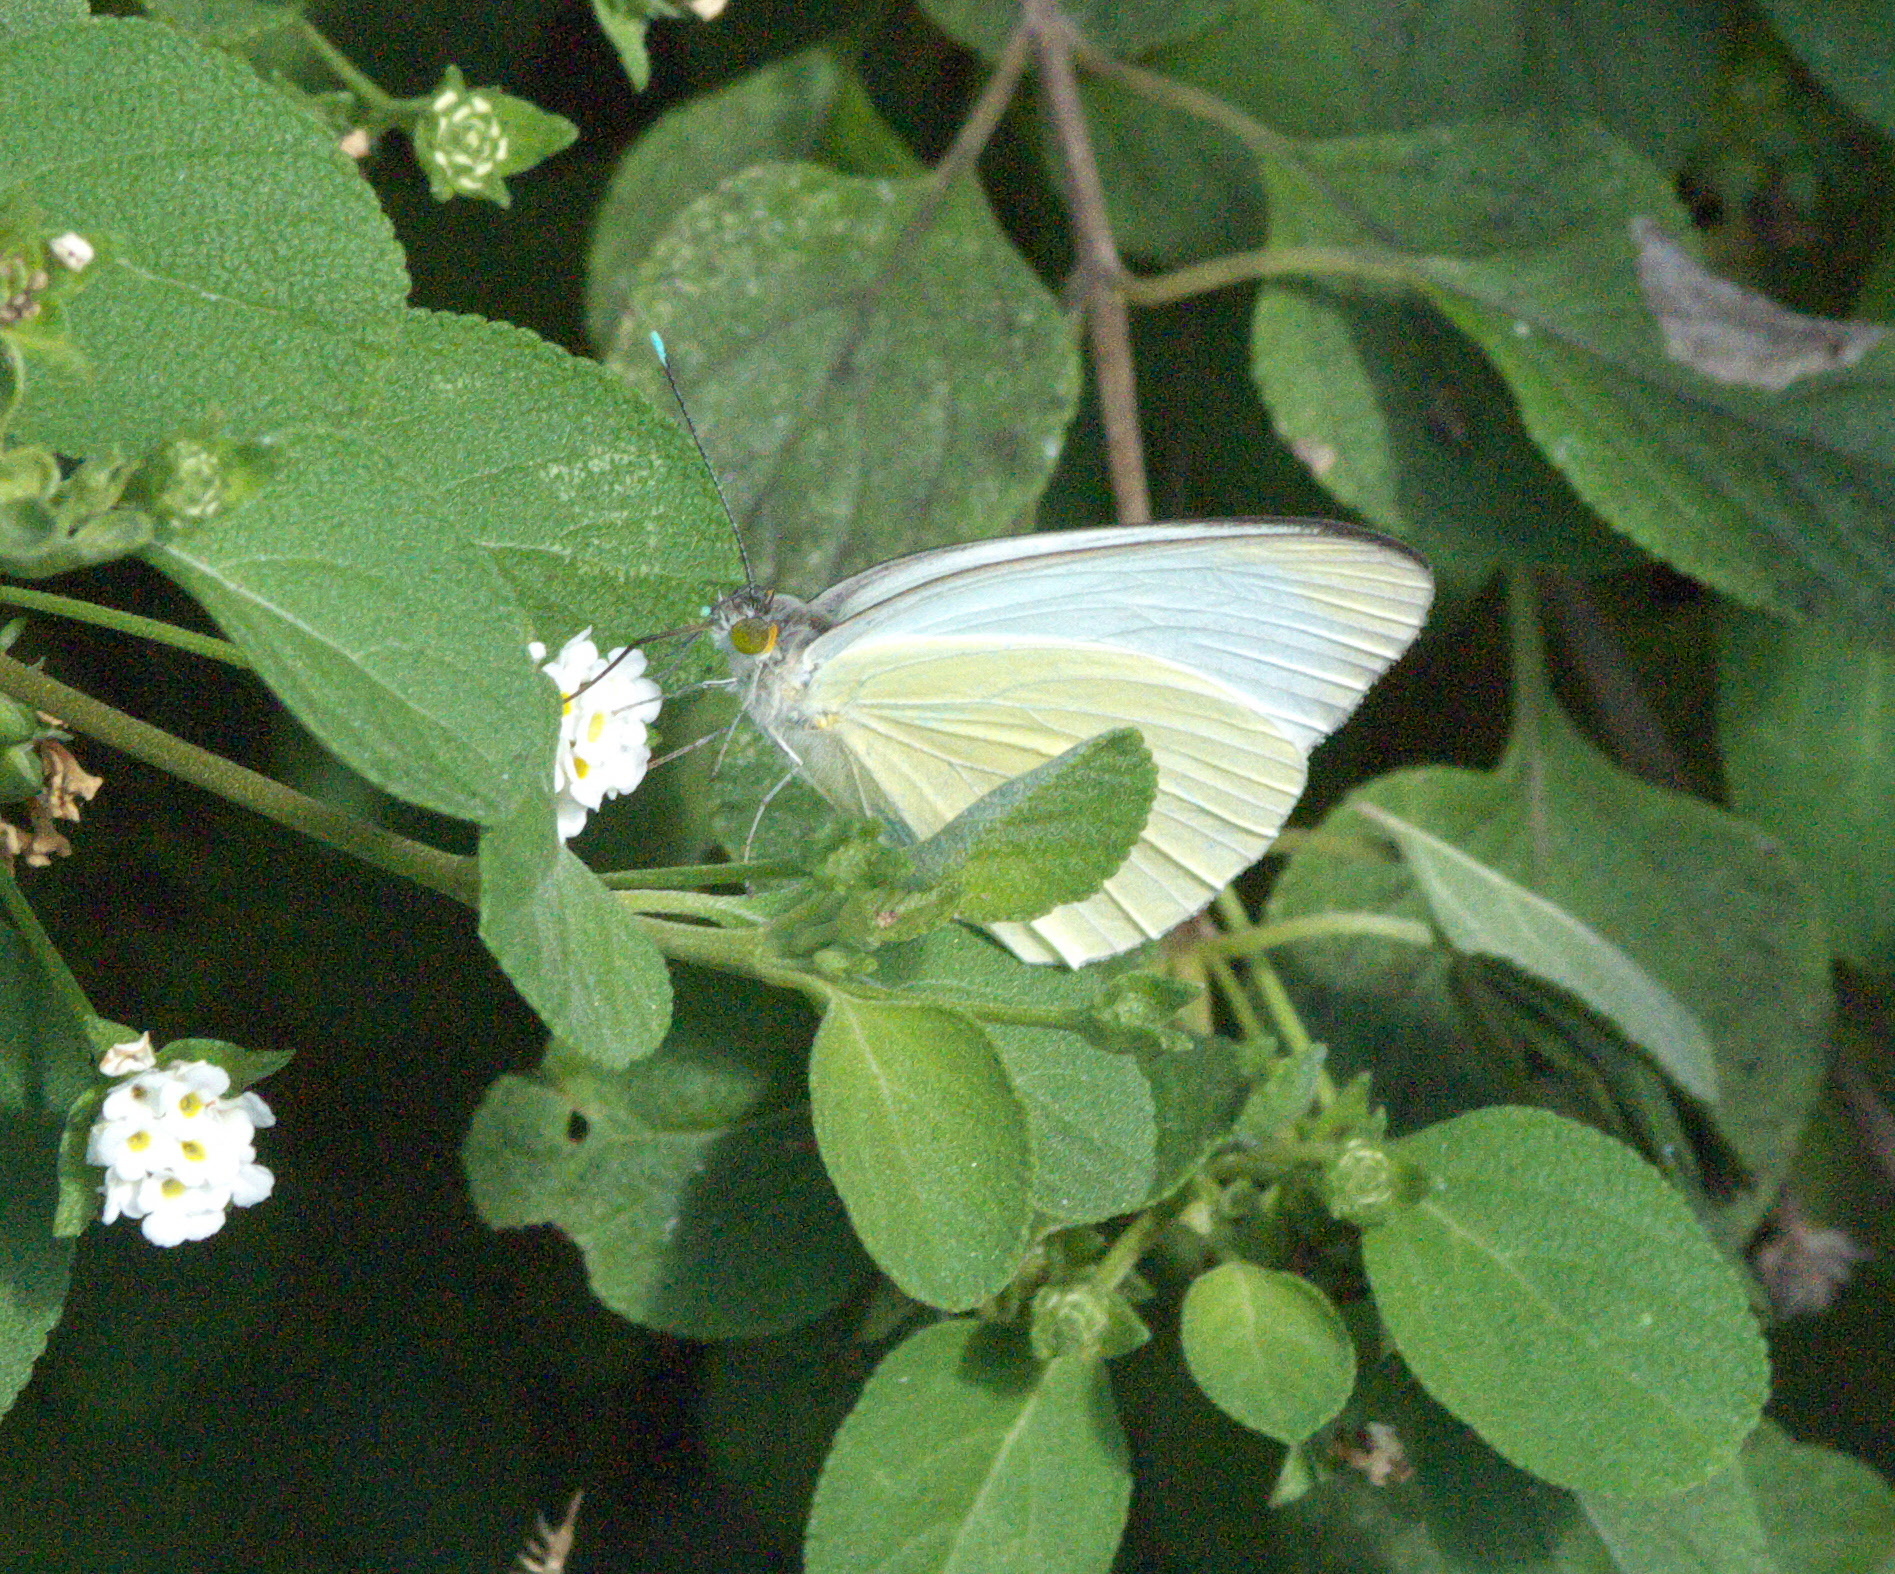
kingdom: Animalia
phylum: Arthropoda
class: Insecta
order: Lepidoptera
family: Pieridae
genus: Ascia
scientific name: Ascia monuste
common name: Great southern white
